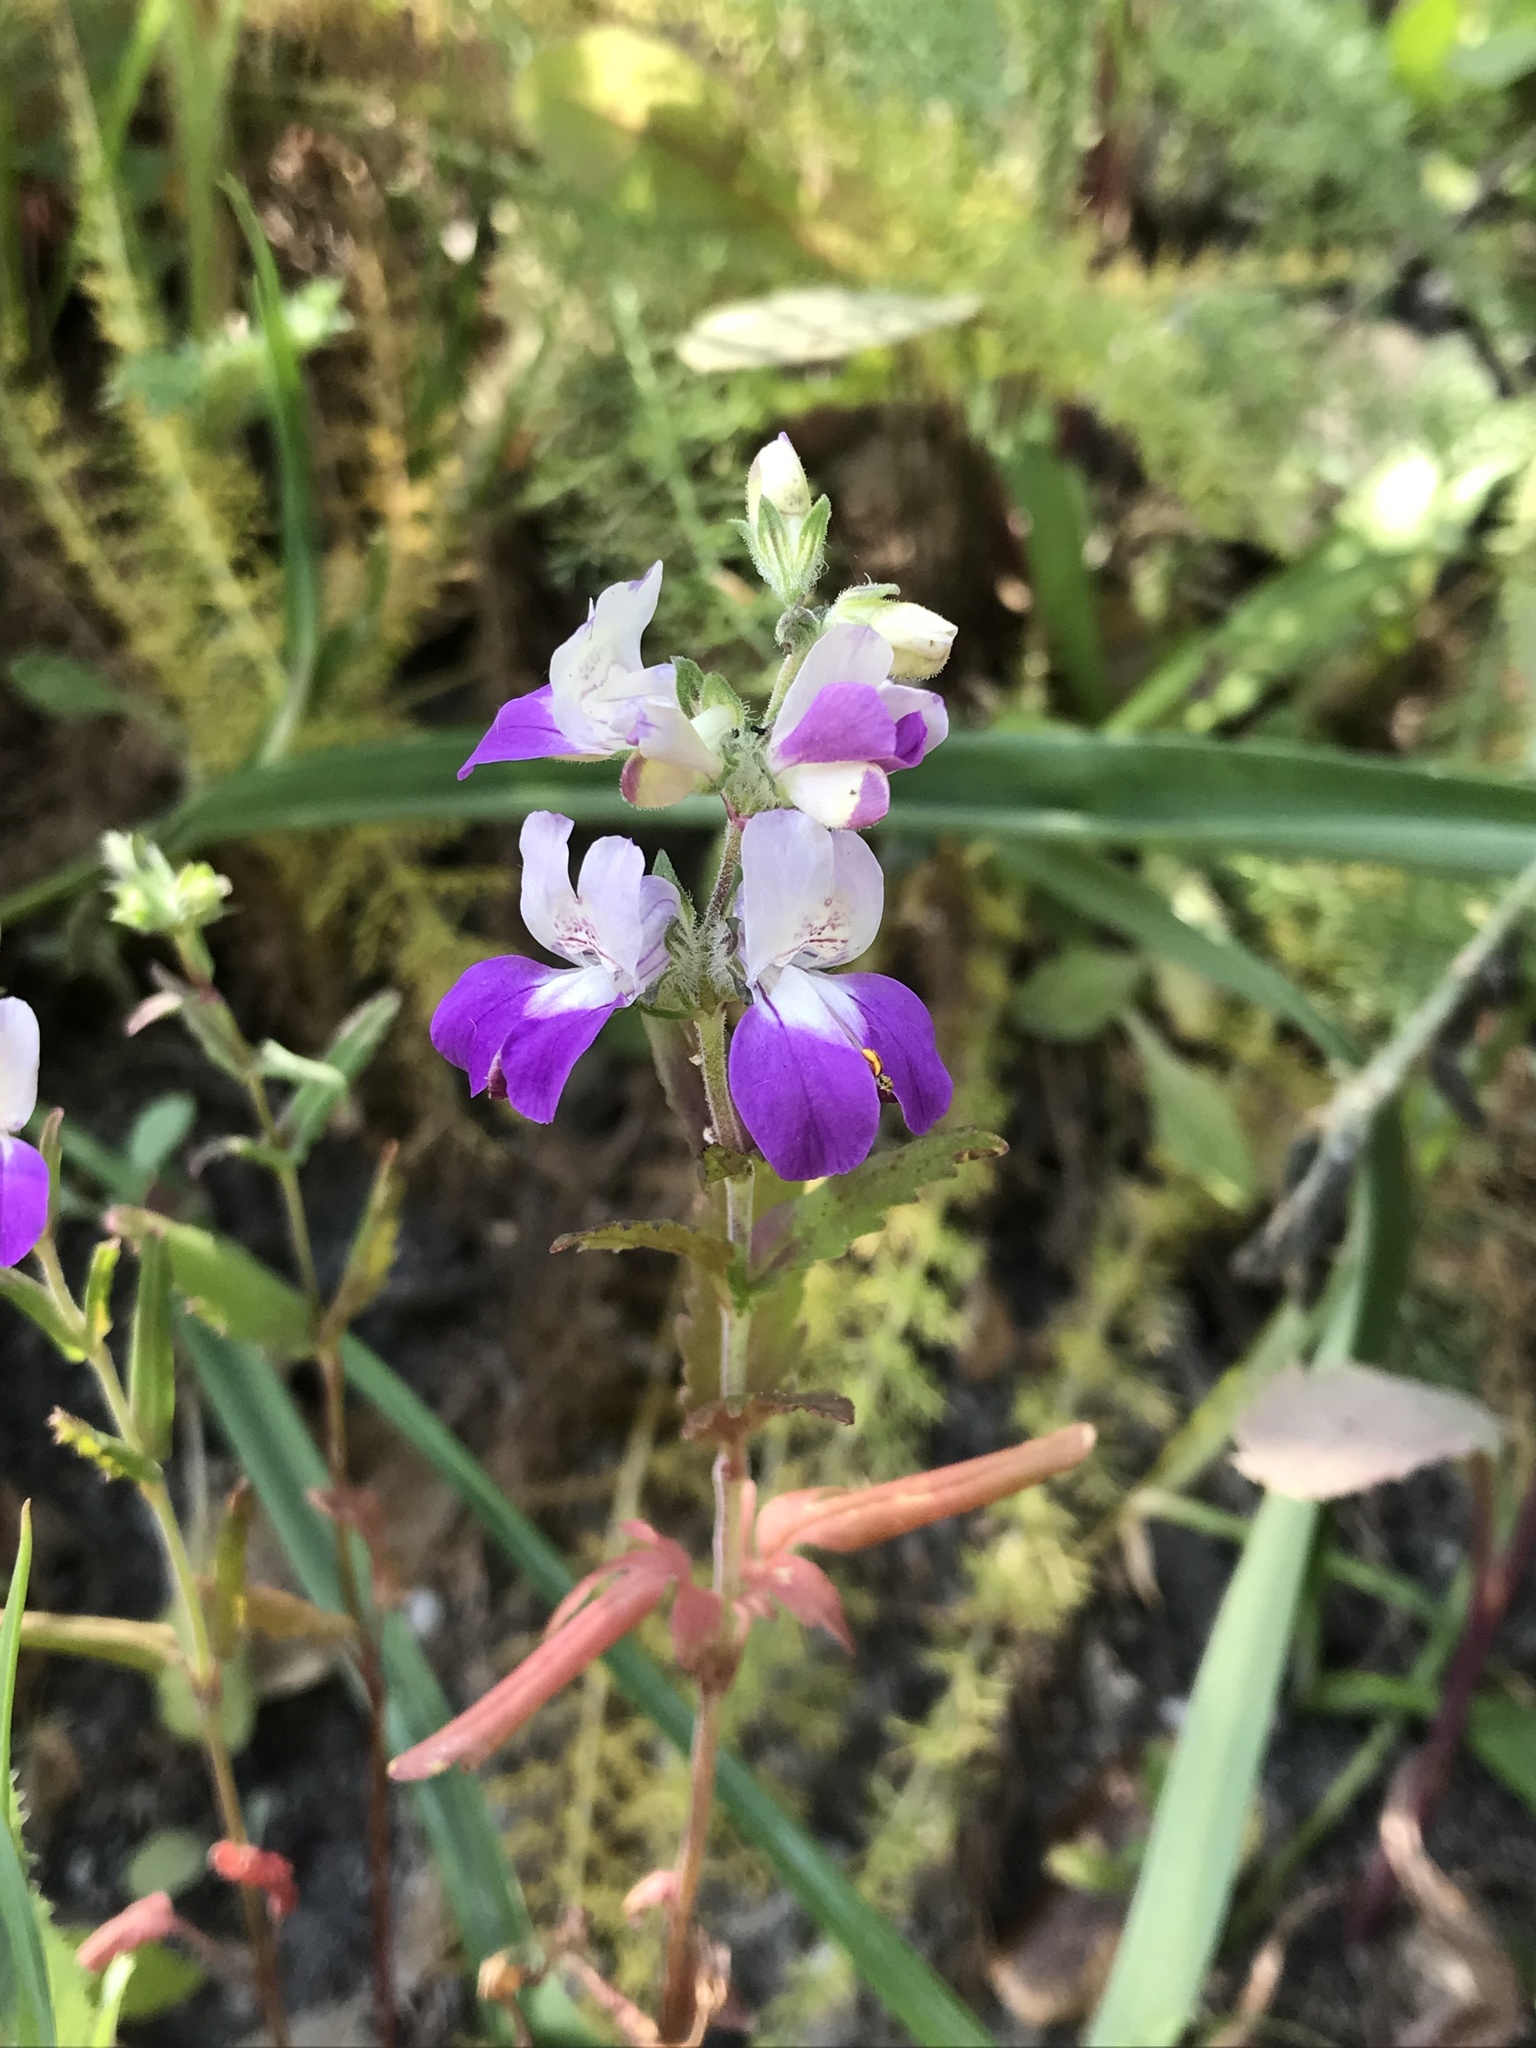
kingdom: Plantae
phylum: Tracheophyta
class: Magnoliopsida
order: Lamiales
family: Plantaginaceae
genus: Collinsia
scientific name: Collinsia heterophylla
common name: Chinese-houses
